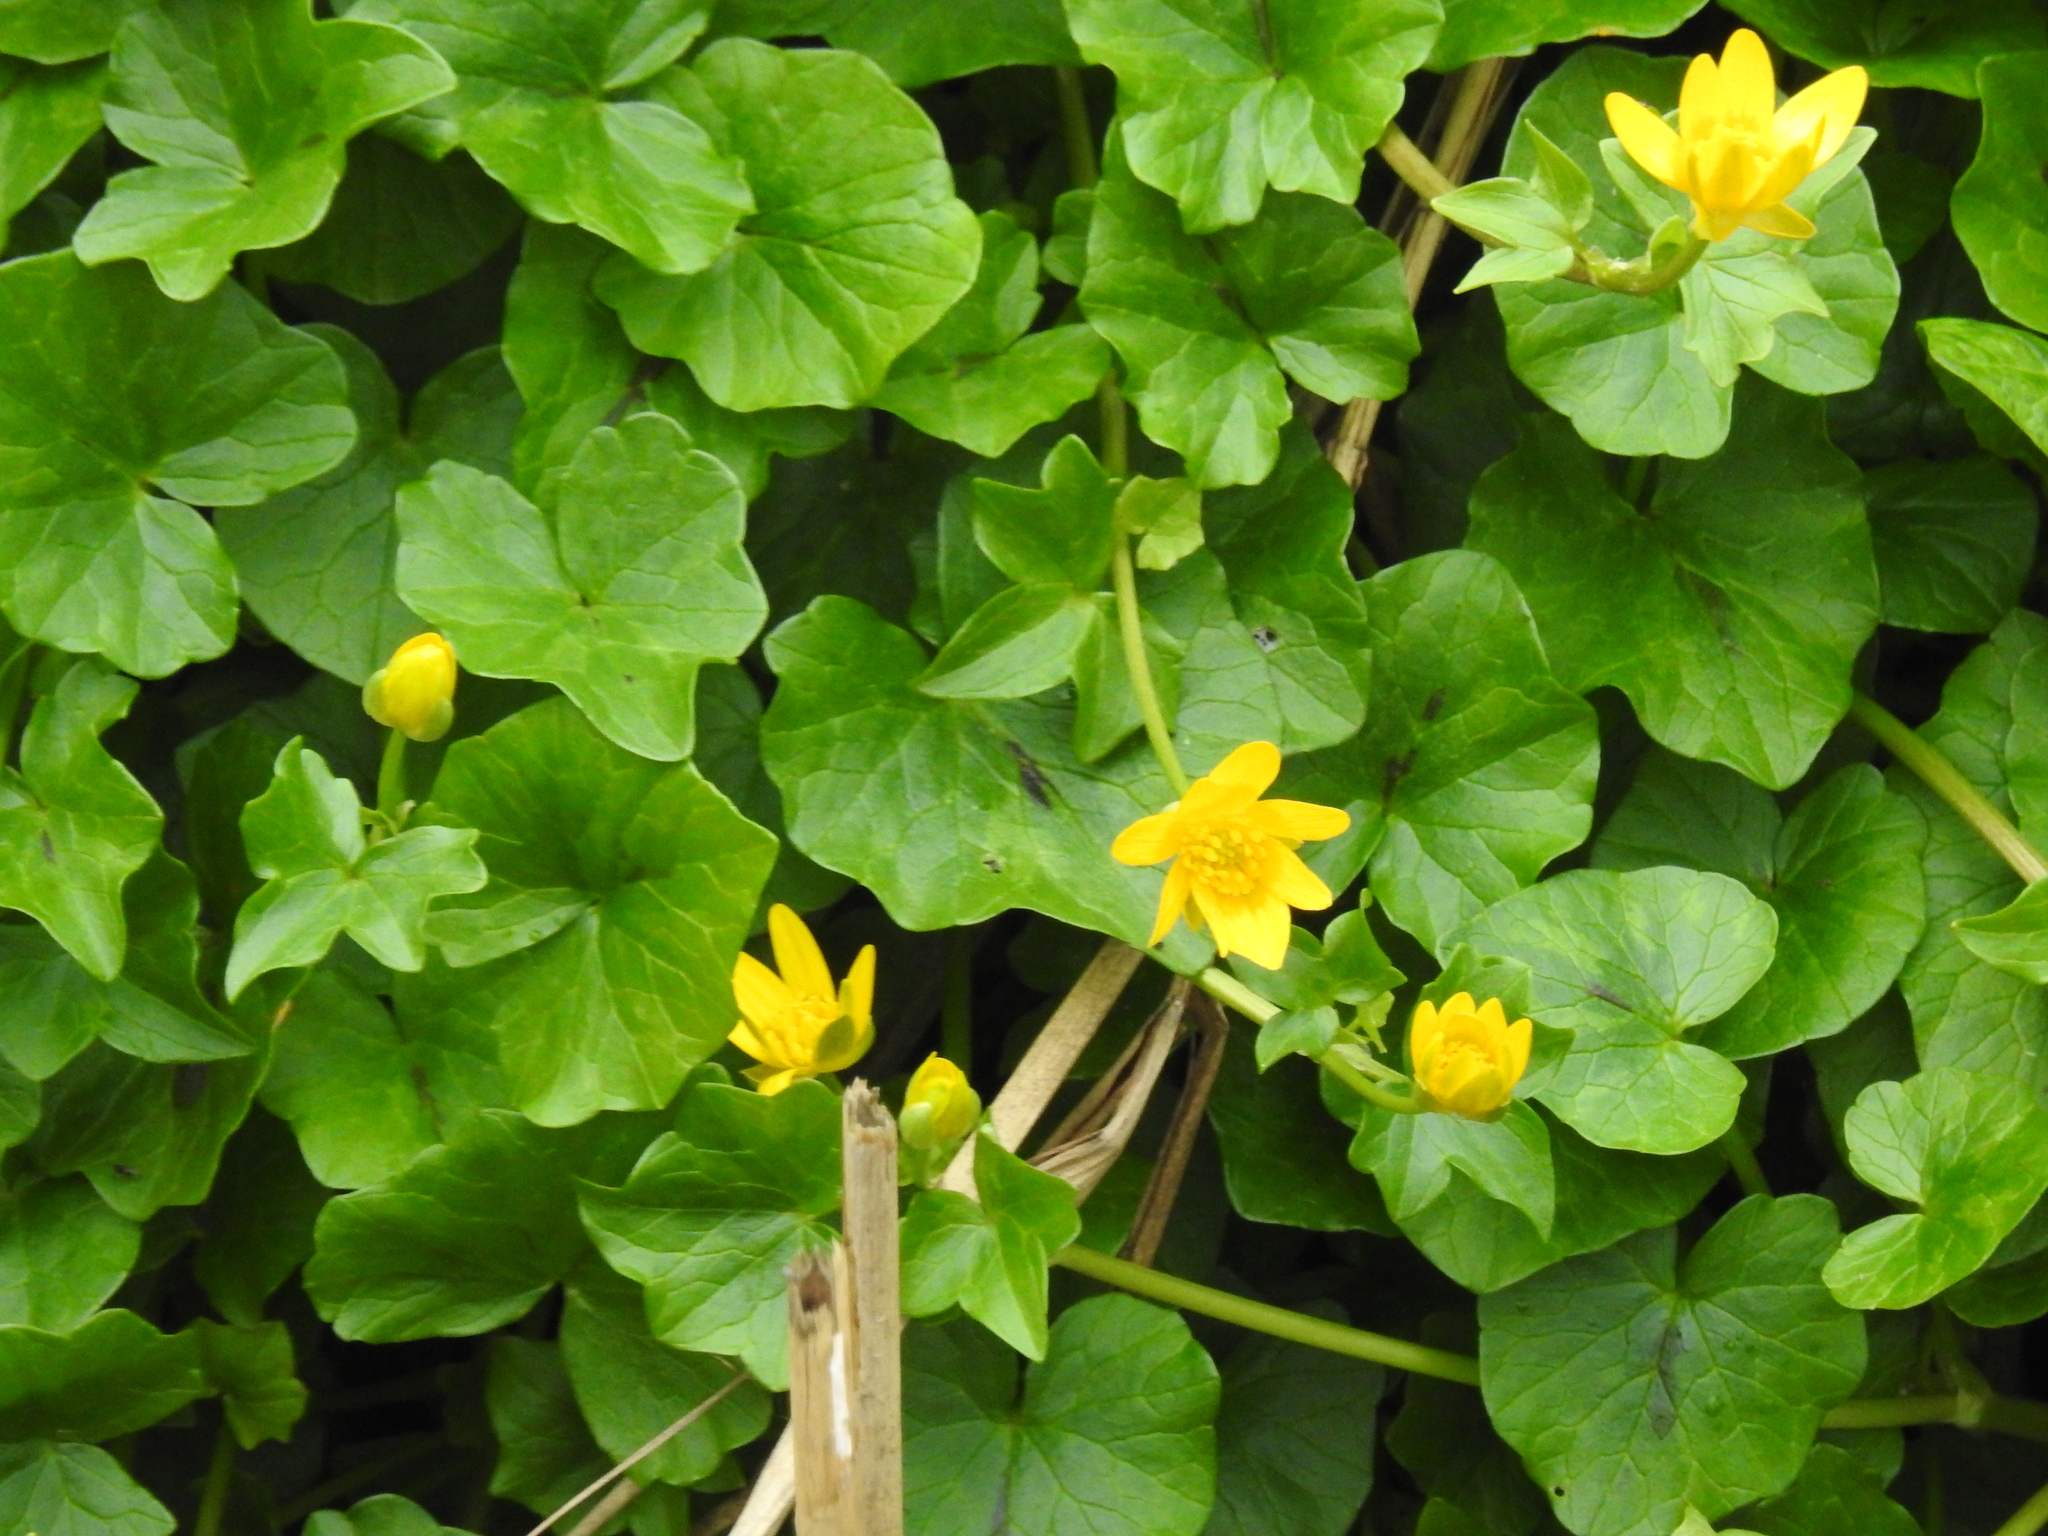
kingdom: Plantae
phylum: Tracheophyta
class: Magnoliopsida
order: Ranunculales
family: Ranunculaceae
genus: Ficaria
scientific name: Ficaria verna
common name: Lesser celandine
